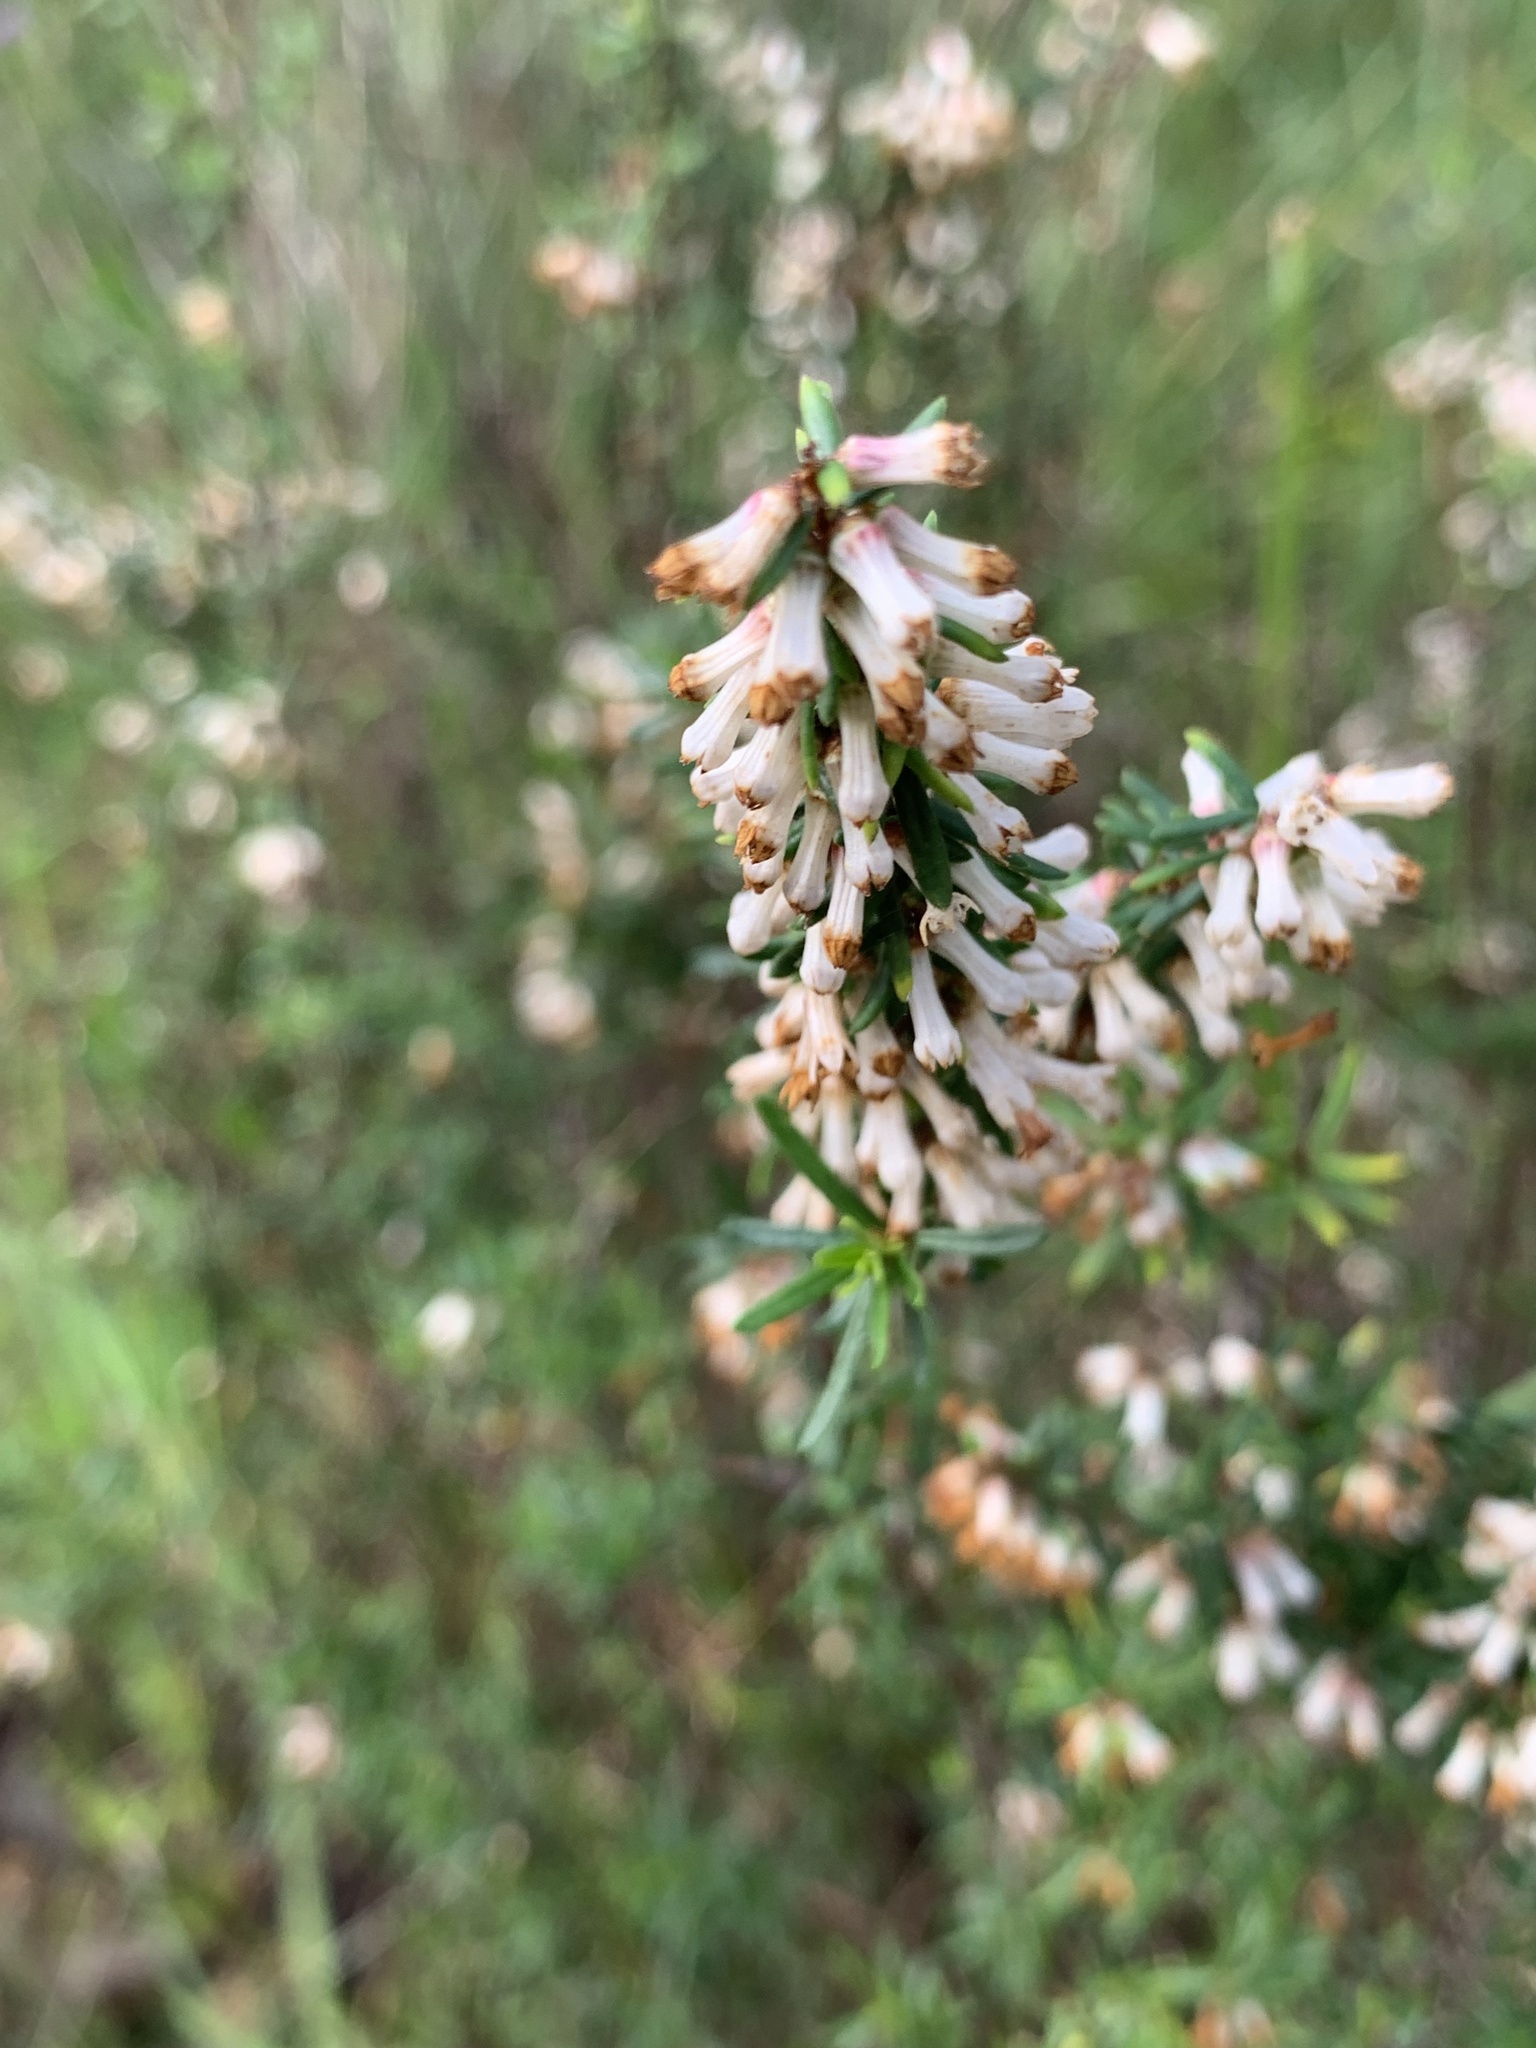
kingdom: Plantae
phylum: Tracheophyta
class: Magnoliopsida
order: Rosales
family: Rhamnaceae
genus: Cryptandra
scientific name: Cryptandra arbutiflora
